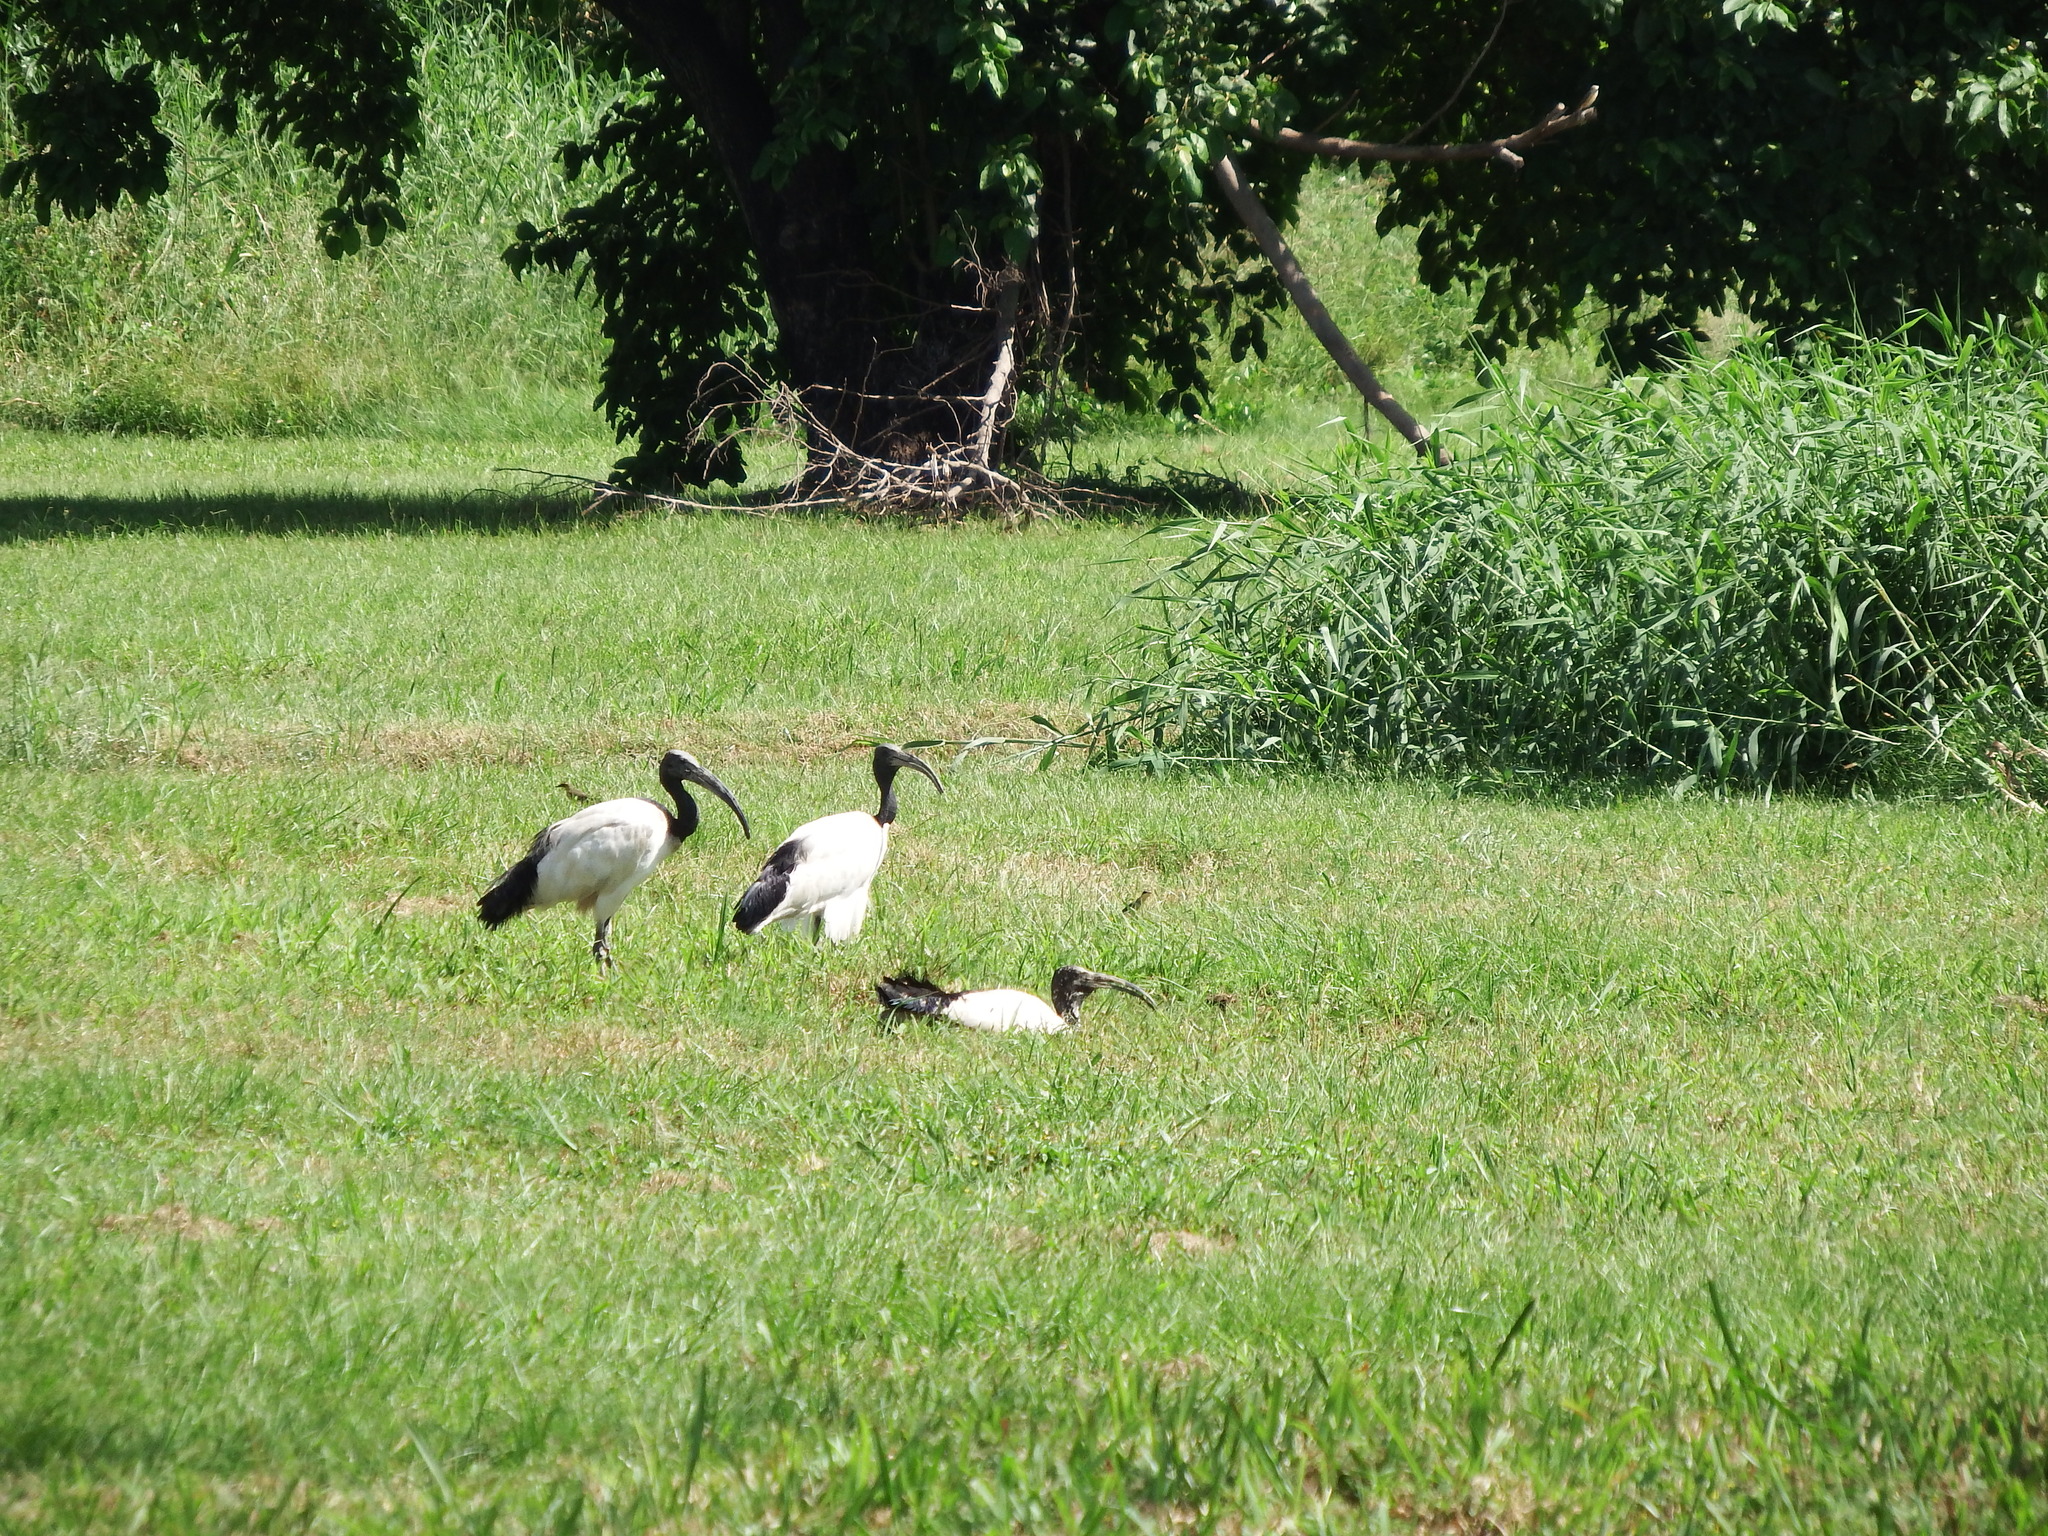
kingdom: Animalia
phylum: Chordata
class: Aves
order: Pelecaniformes
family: Threskiornithidae
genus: Threskiornis
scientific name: Threskiornis aethiopicus
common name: Sacred ibis
